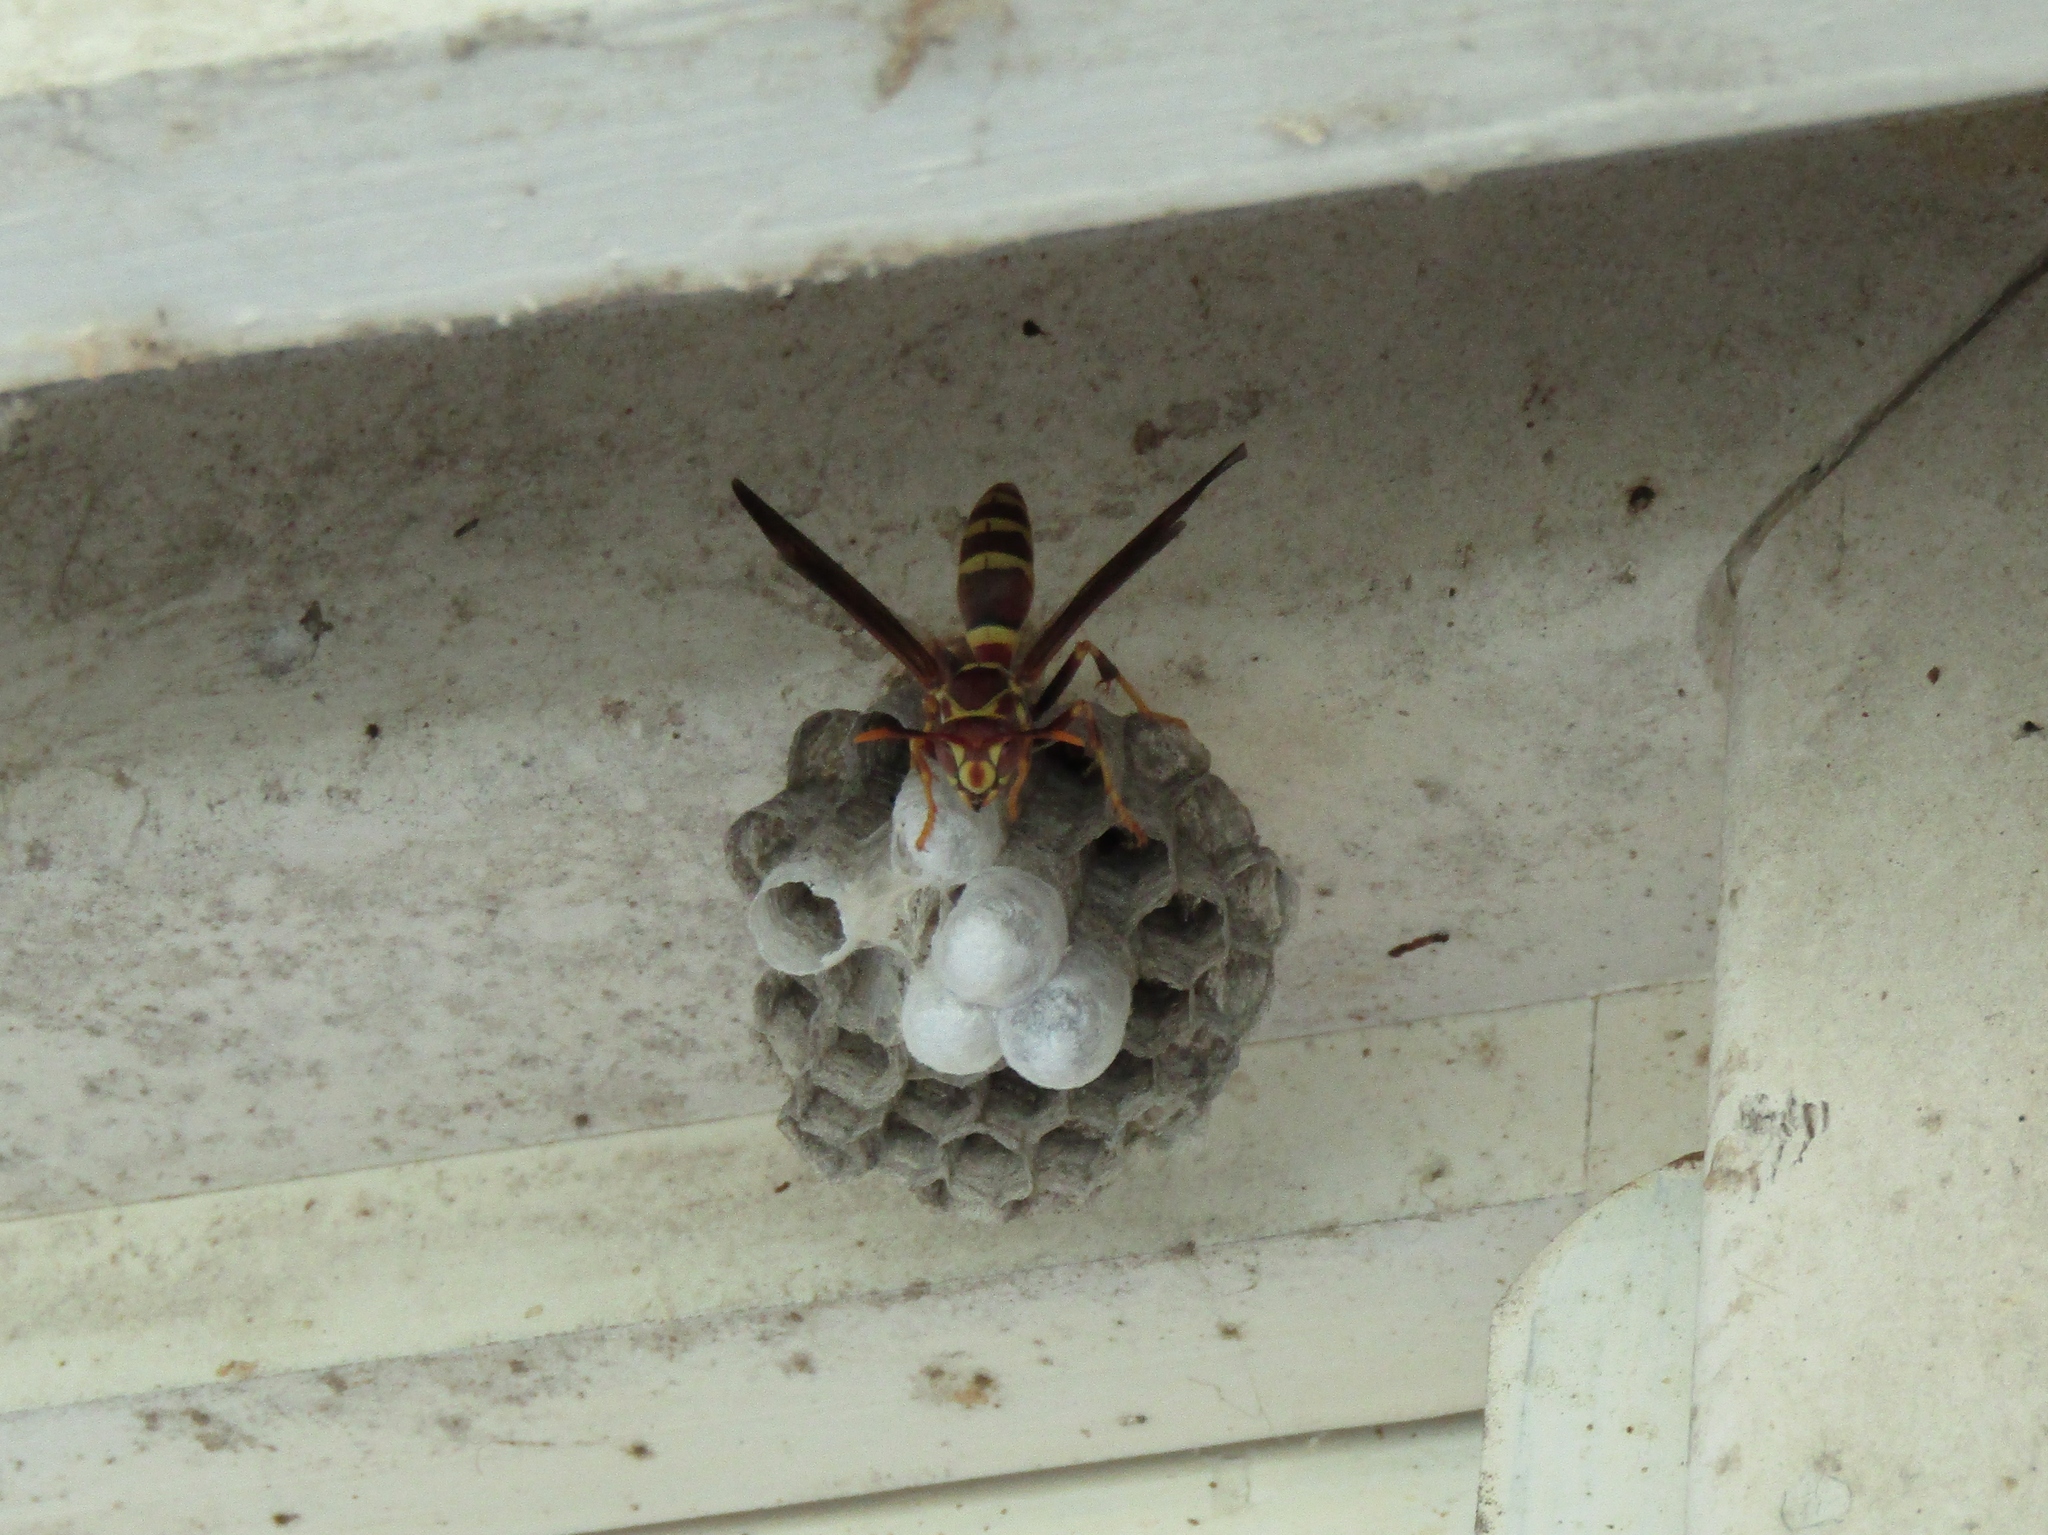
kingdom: Animalia
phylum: Arthropoda
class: Insecta
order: Hymenoptera
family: Eumenidae
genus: Polistes
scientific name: Polistes exclamans
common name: Paper wasp
